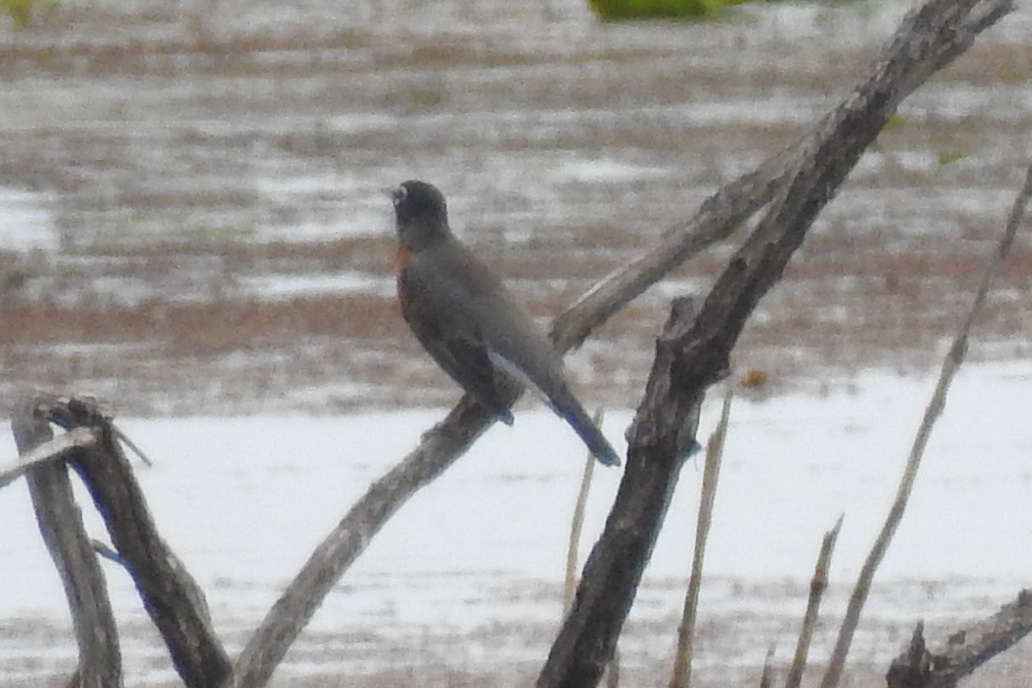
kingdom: Animalia
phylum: Chordata
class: Aves
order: Passeriformes
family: Turdidae
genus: Turdus
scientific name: Turdus migratorius
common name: American robin
